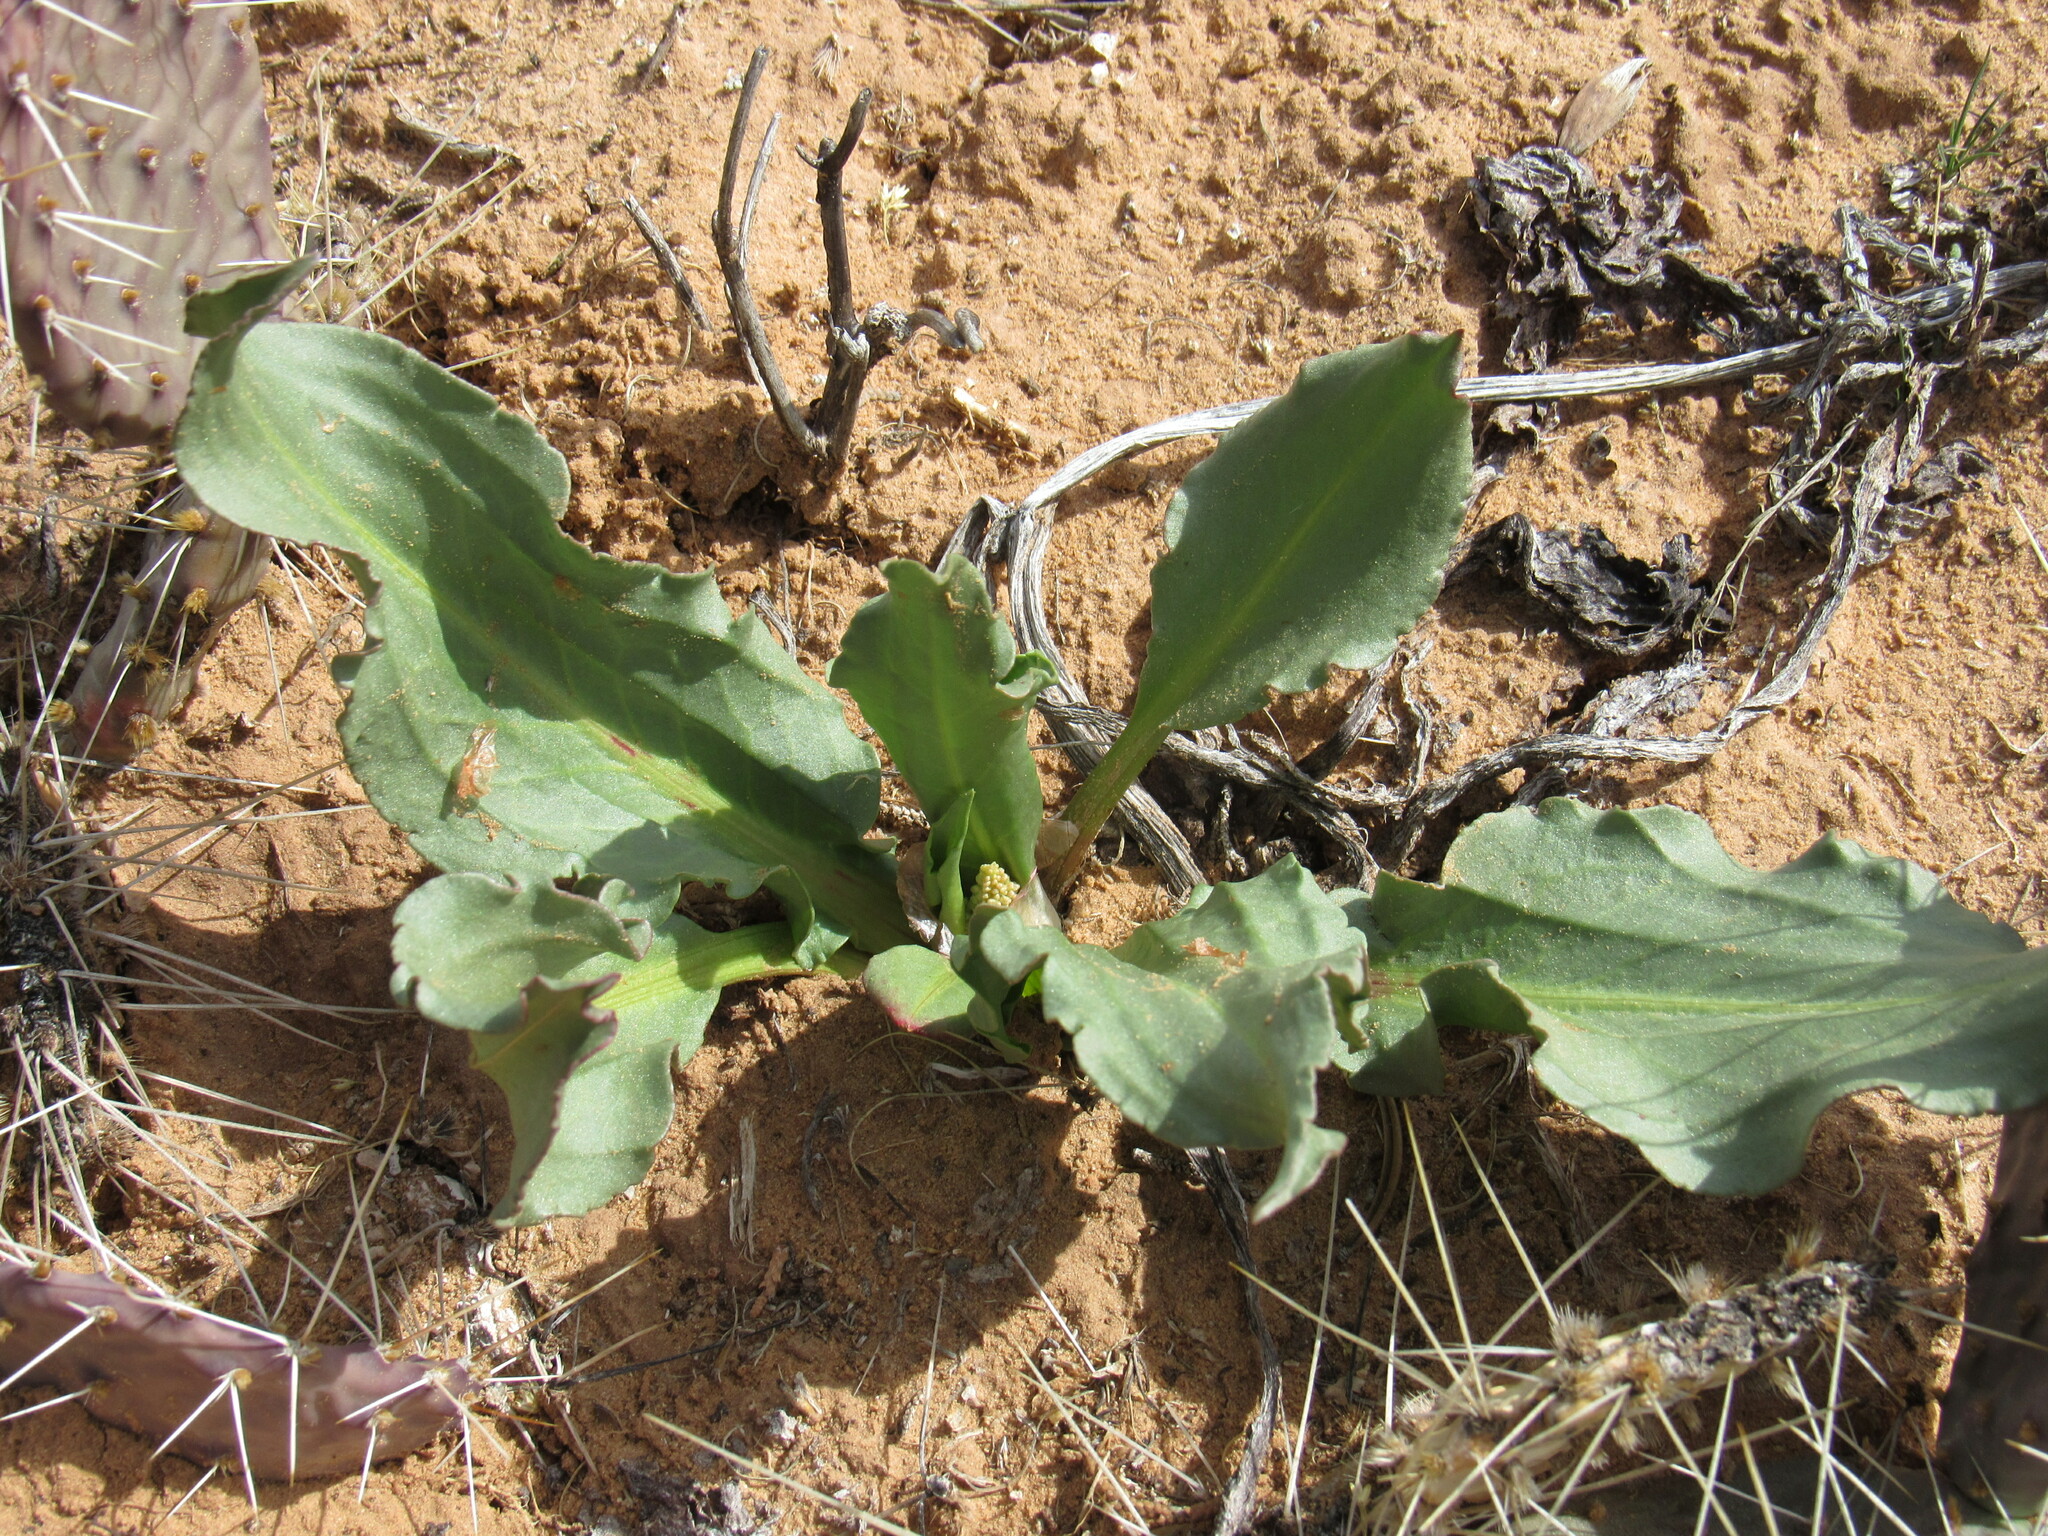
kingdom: Plantae
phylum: Tracheophyta
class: Magnoliopsida
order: Caryophyllales
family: Polygonaceae
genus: Rumex
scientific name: Rumex hymenosepalus
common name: Ganagra
